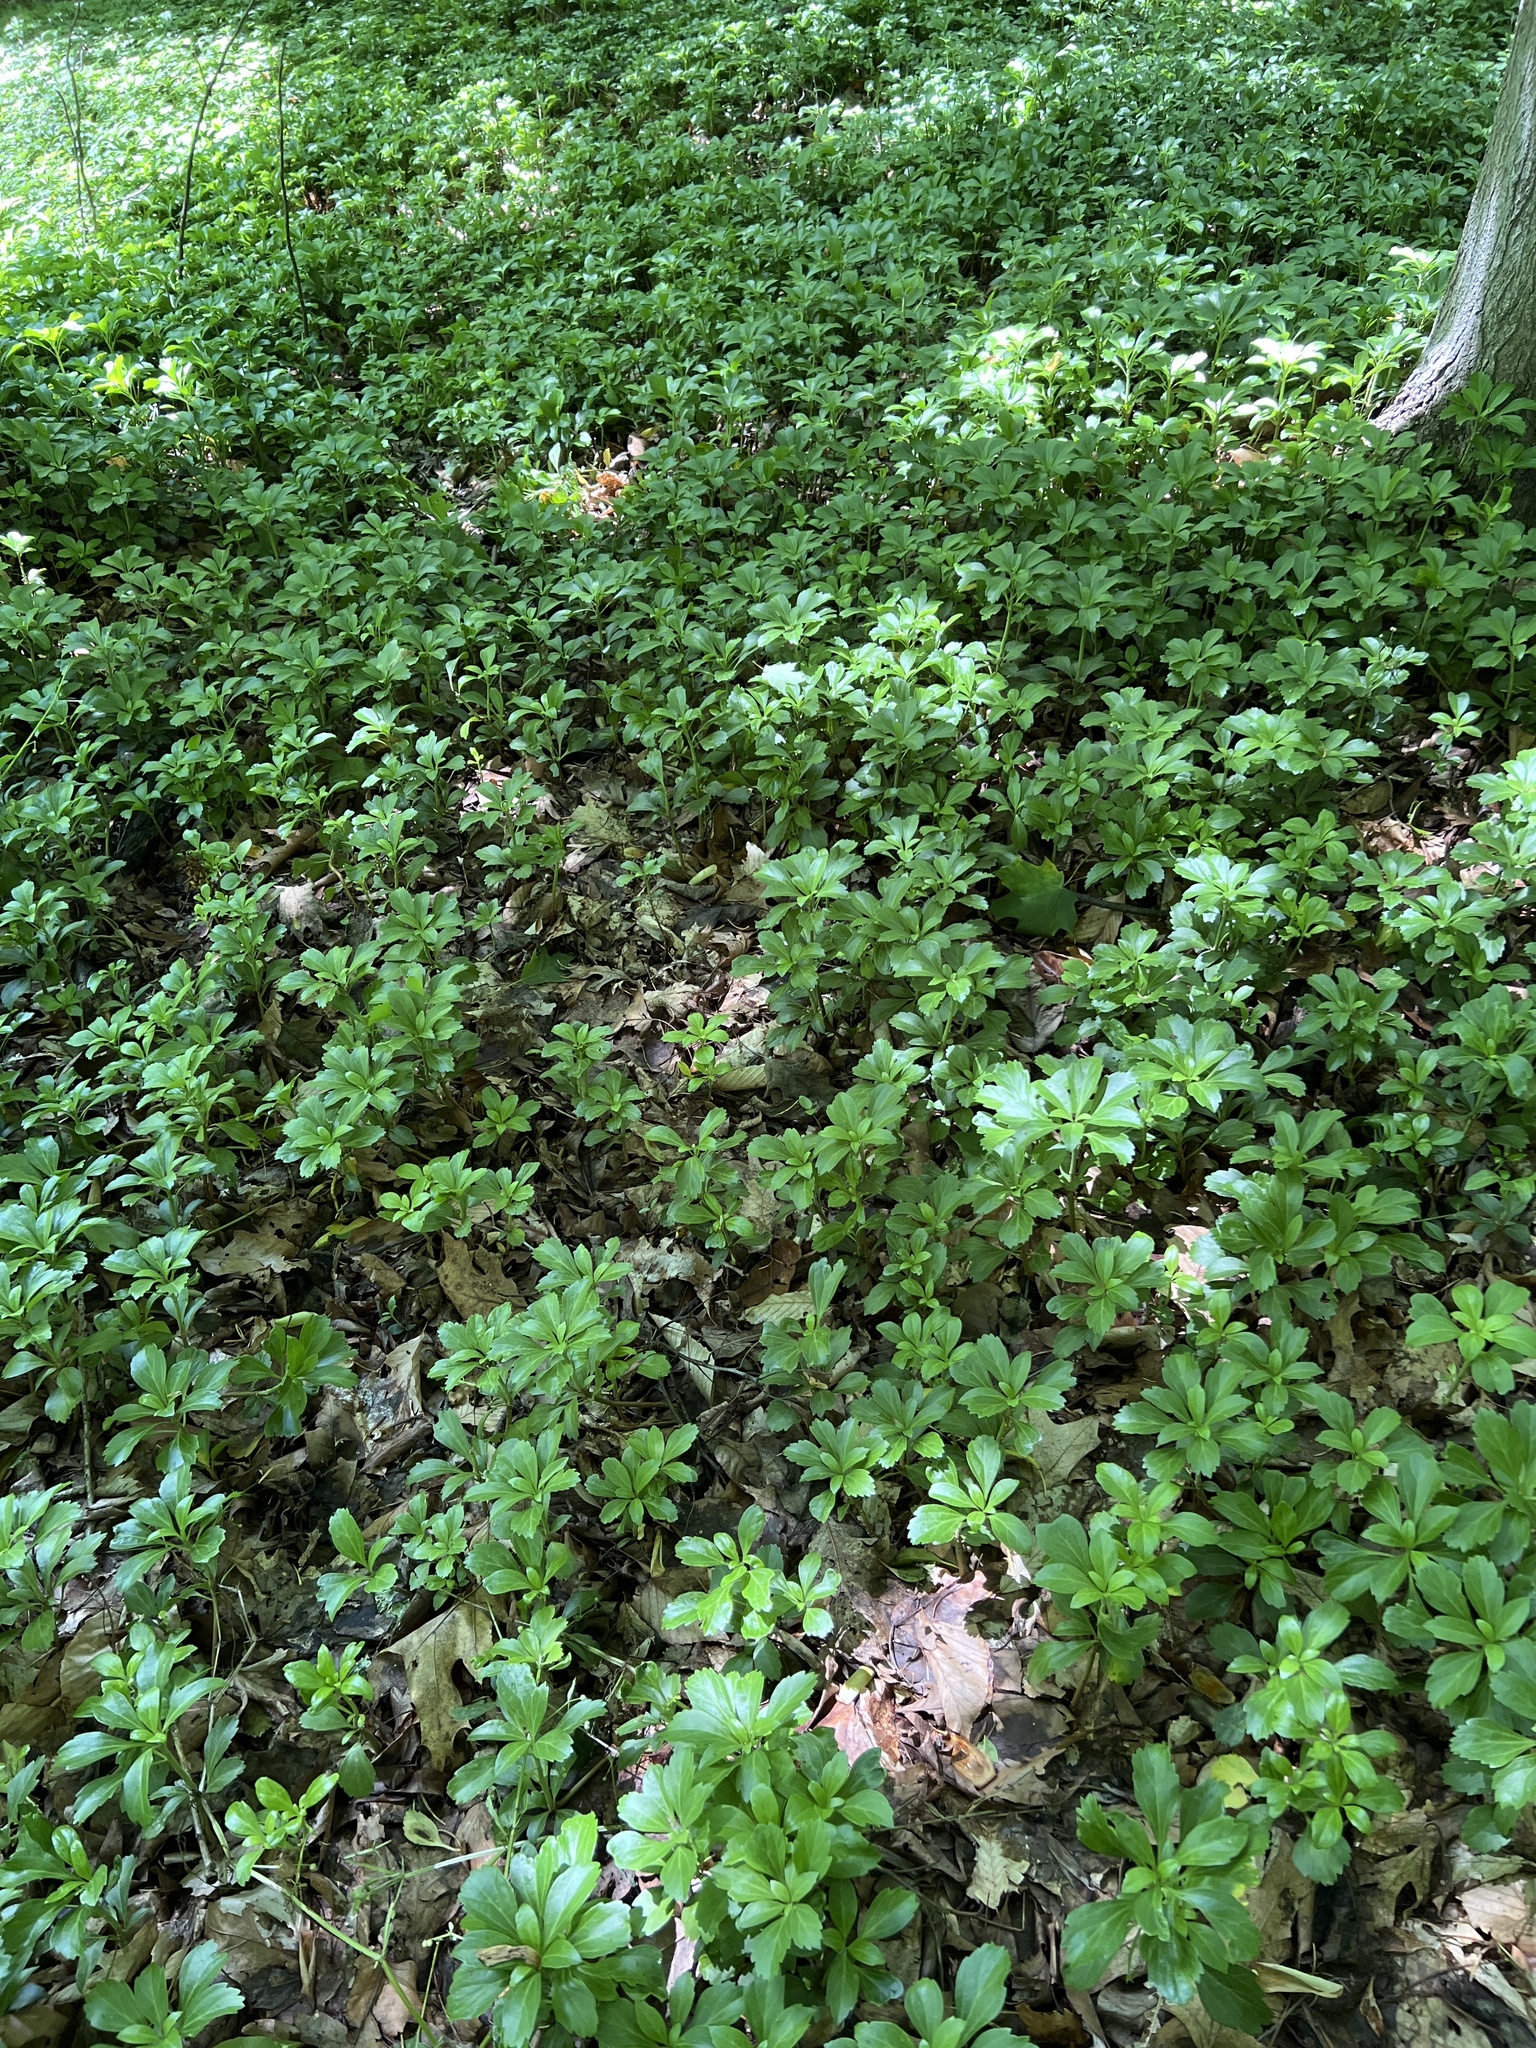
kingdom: Plantae
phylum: Tracheophyta
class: Magnoliopsida
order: Buxales
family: Buxaceae
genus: Pachysandra
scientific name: Pachysandra terminalis
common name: Japanese pachysandra
